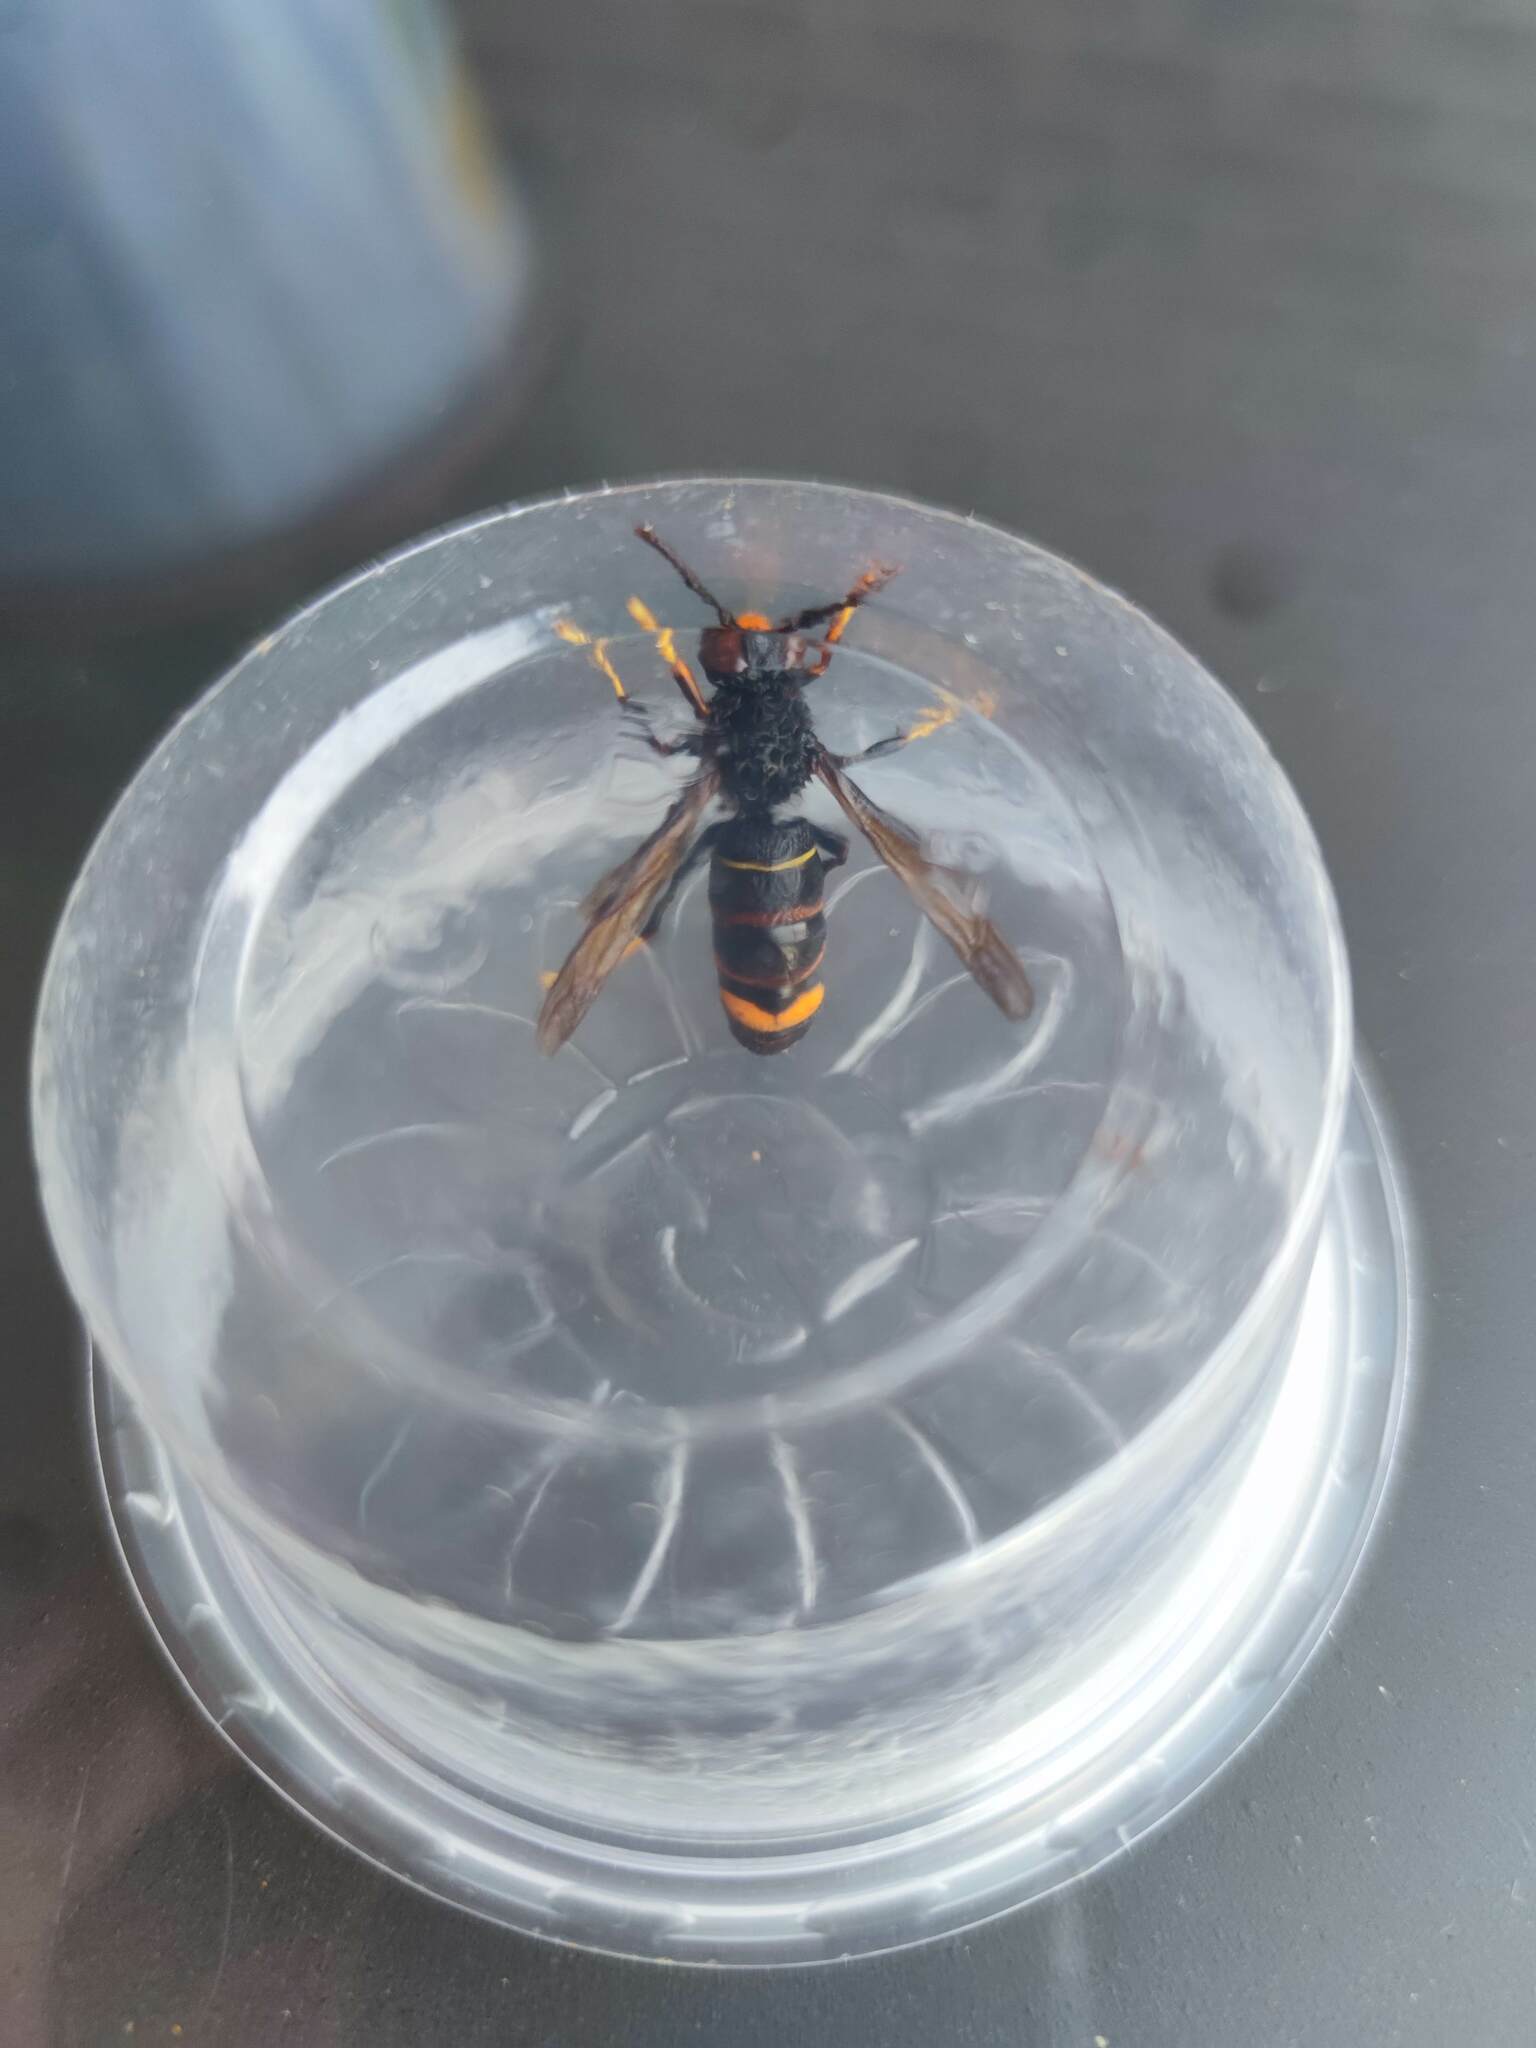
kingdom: Animalia
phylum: Arthropoda
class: Insecta
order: Hymenoptera
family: Vespidae
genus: Vespa
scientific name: Vespa velutina
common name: Asian hornet
